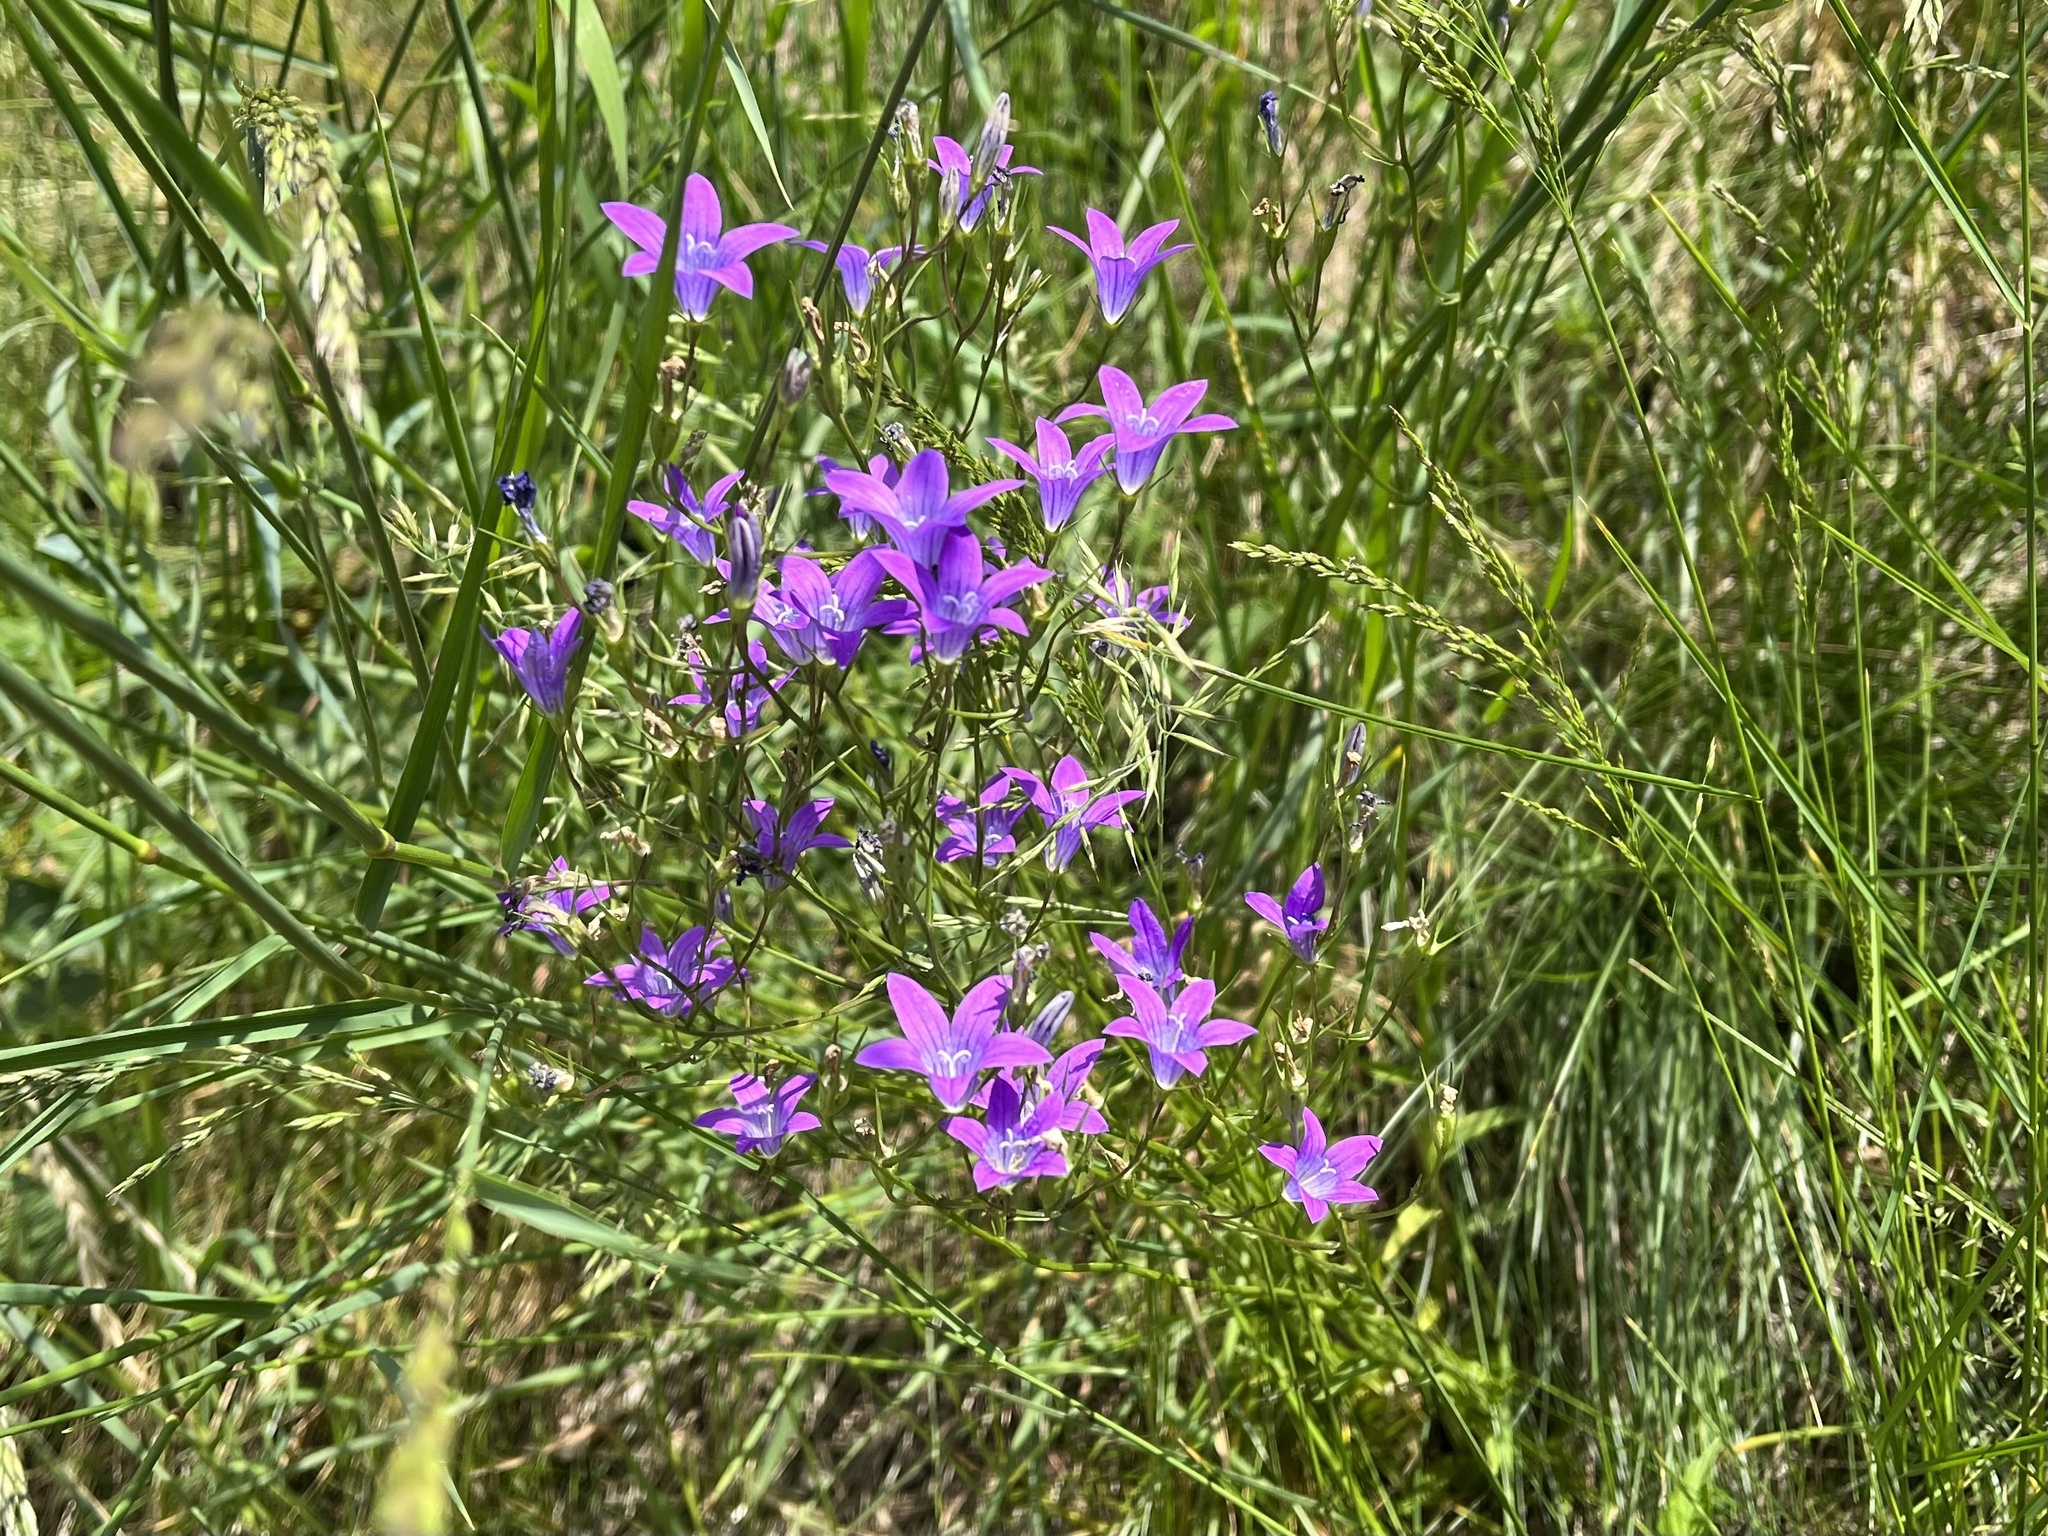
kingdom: Plantae
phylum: Tracheophyta
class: Magnoliopsida
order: Asterales
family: Campanulaceae
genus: Campanula
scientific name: Campanula patula
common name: Spreading bellflower
